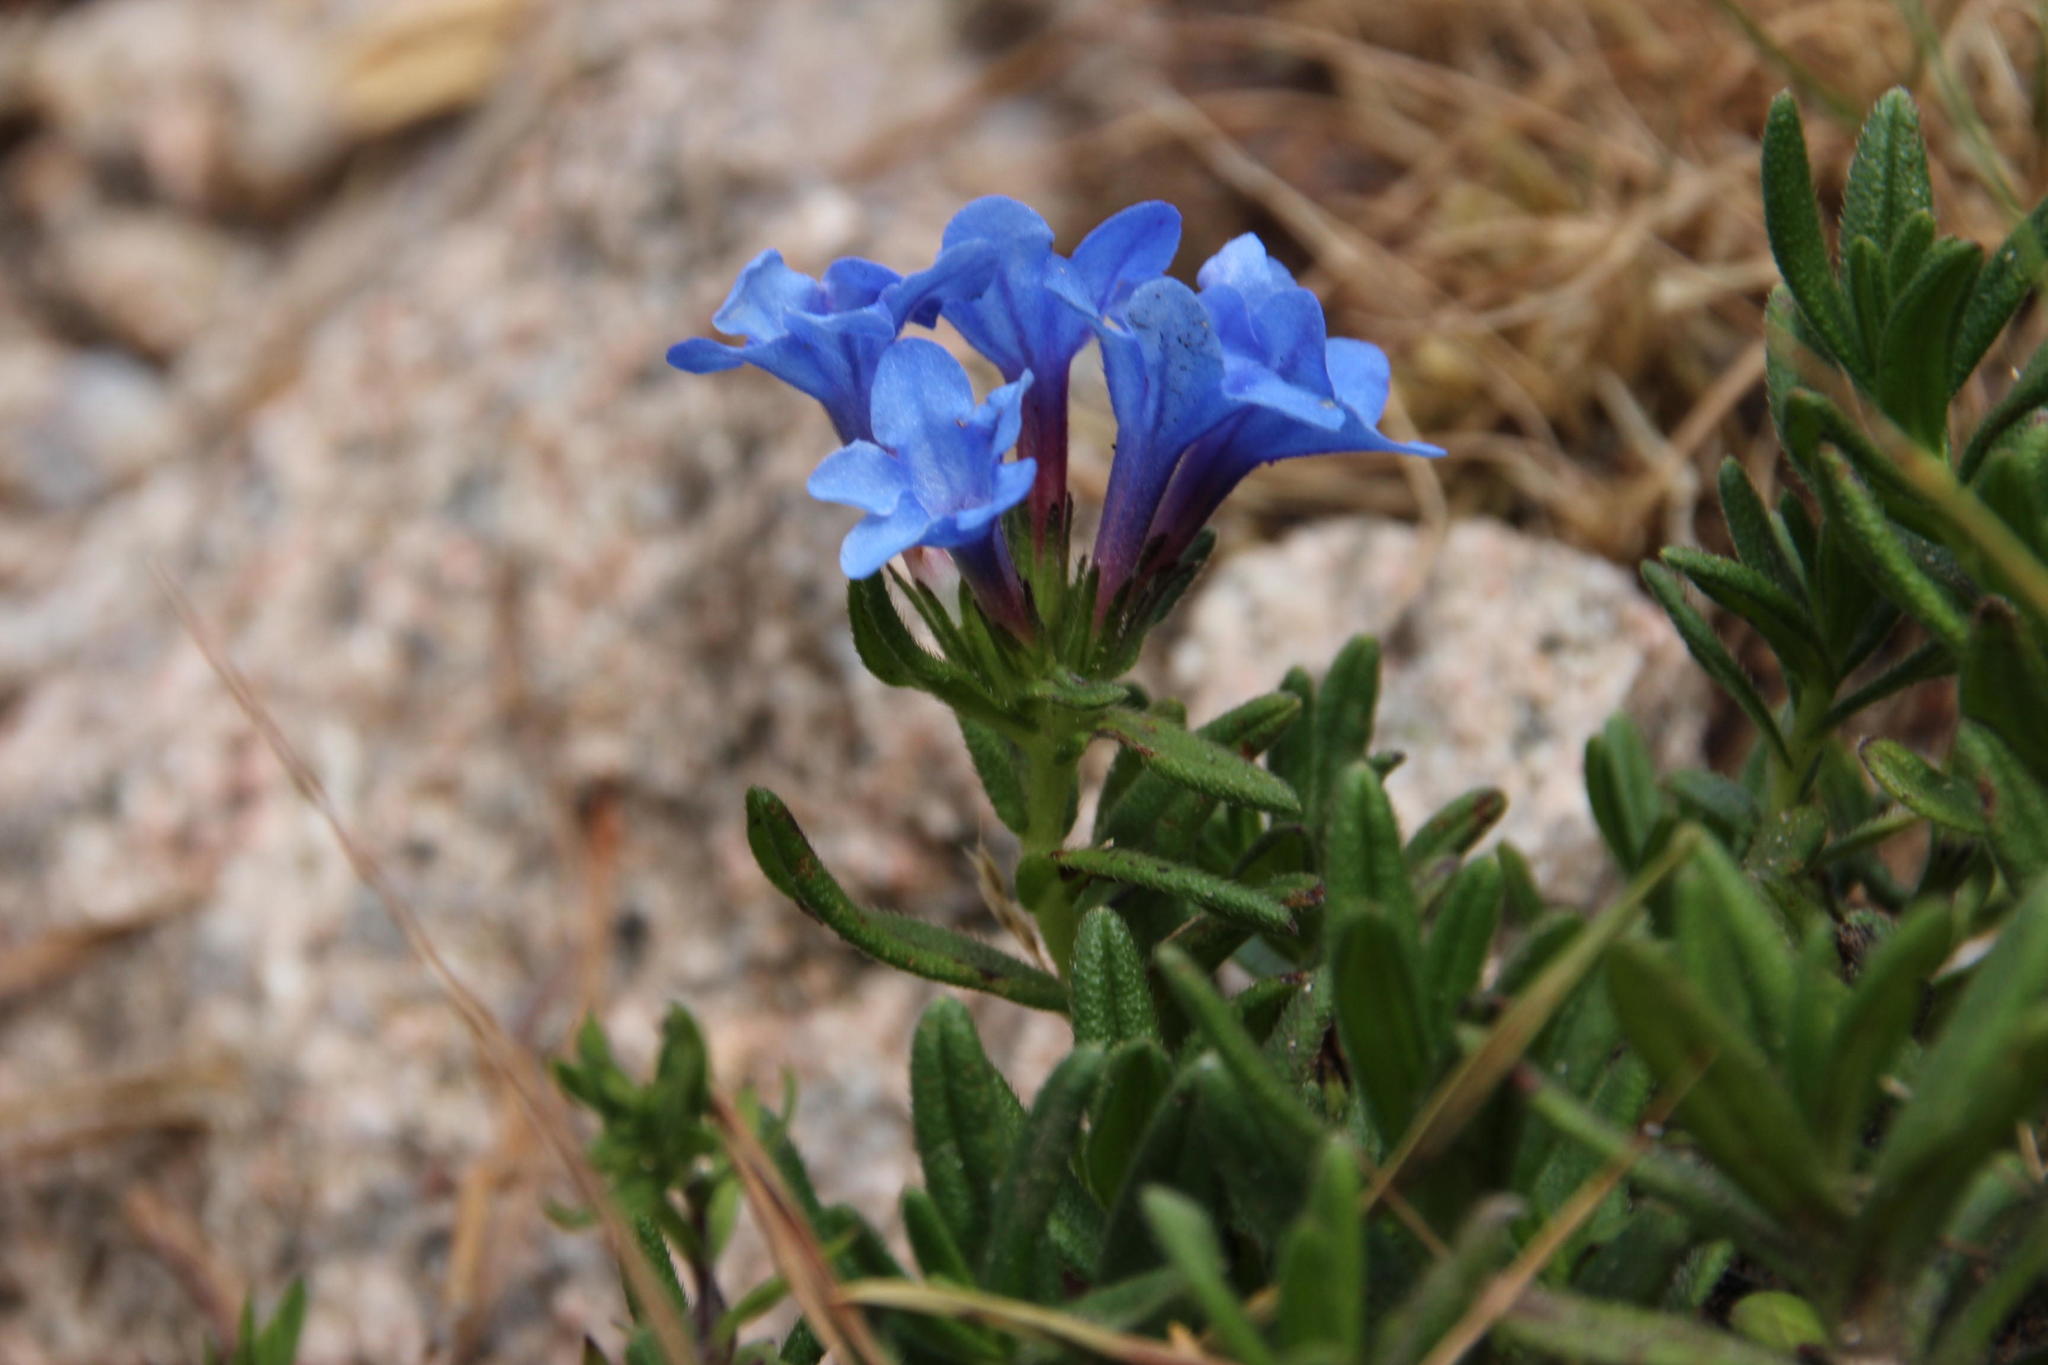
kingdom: Plantae
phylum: Tracheophyta
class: Magnoliopsida
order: Boraginales
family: Boraginaceae
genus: Glandora
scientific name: Glandora prostrata
